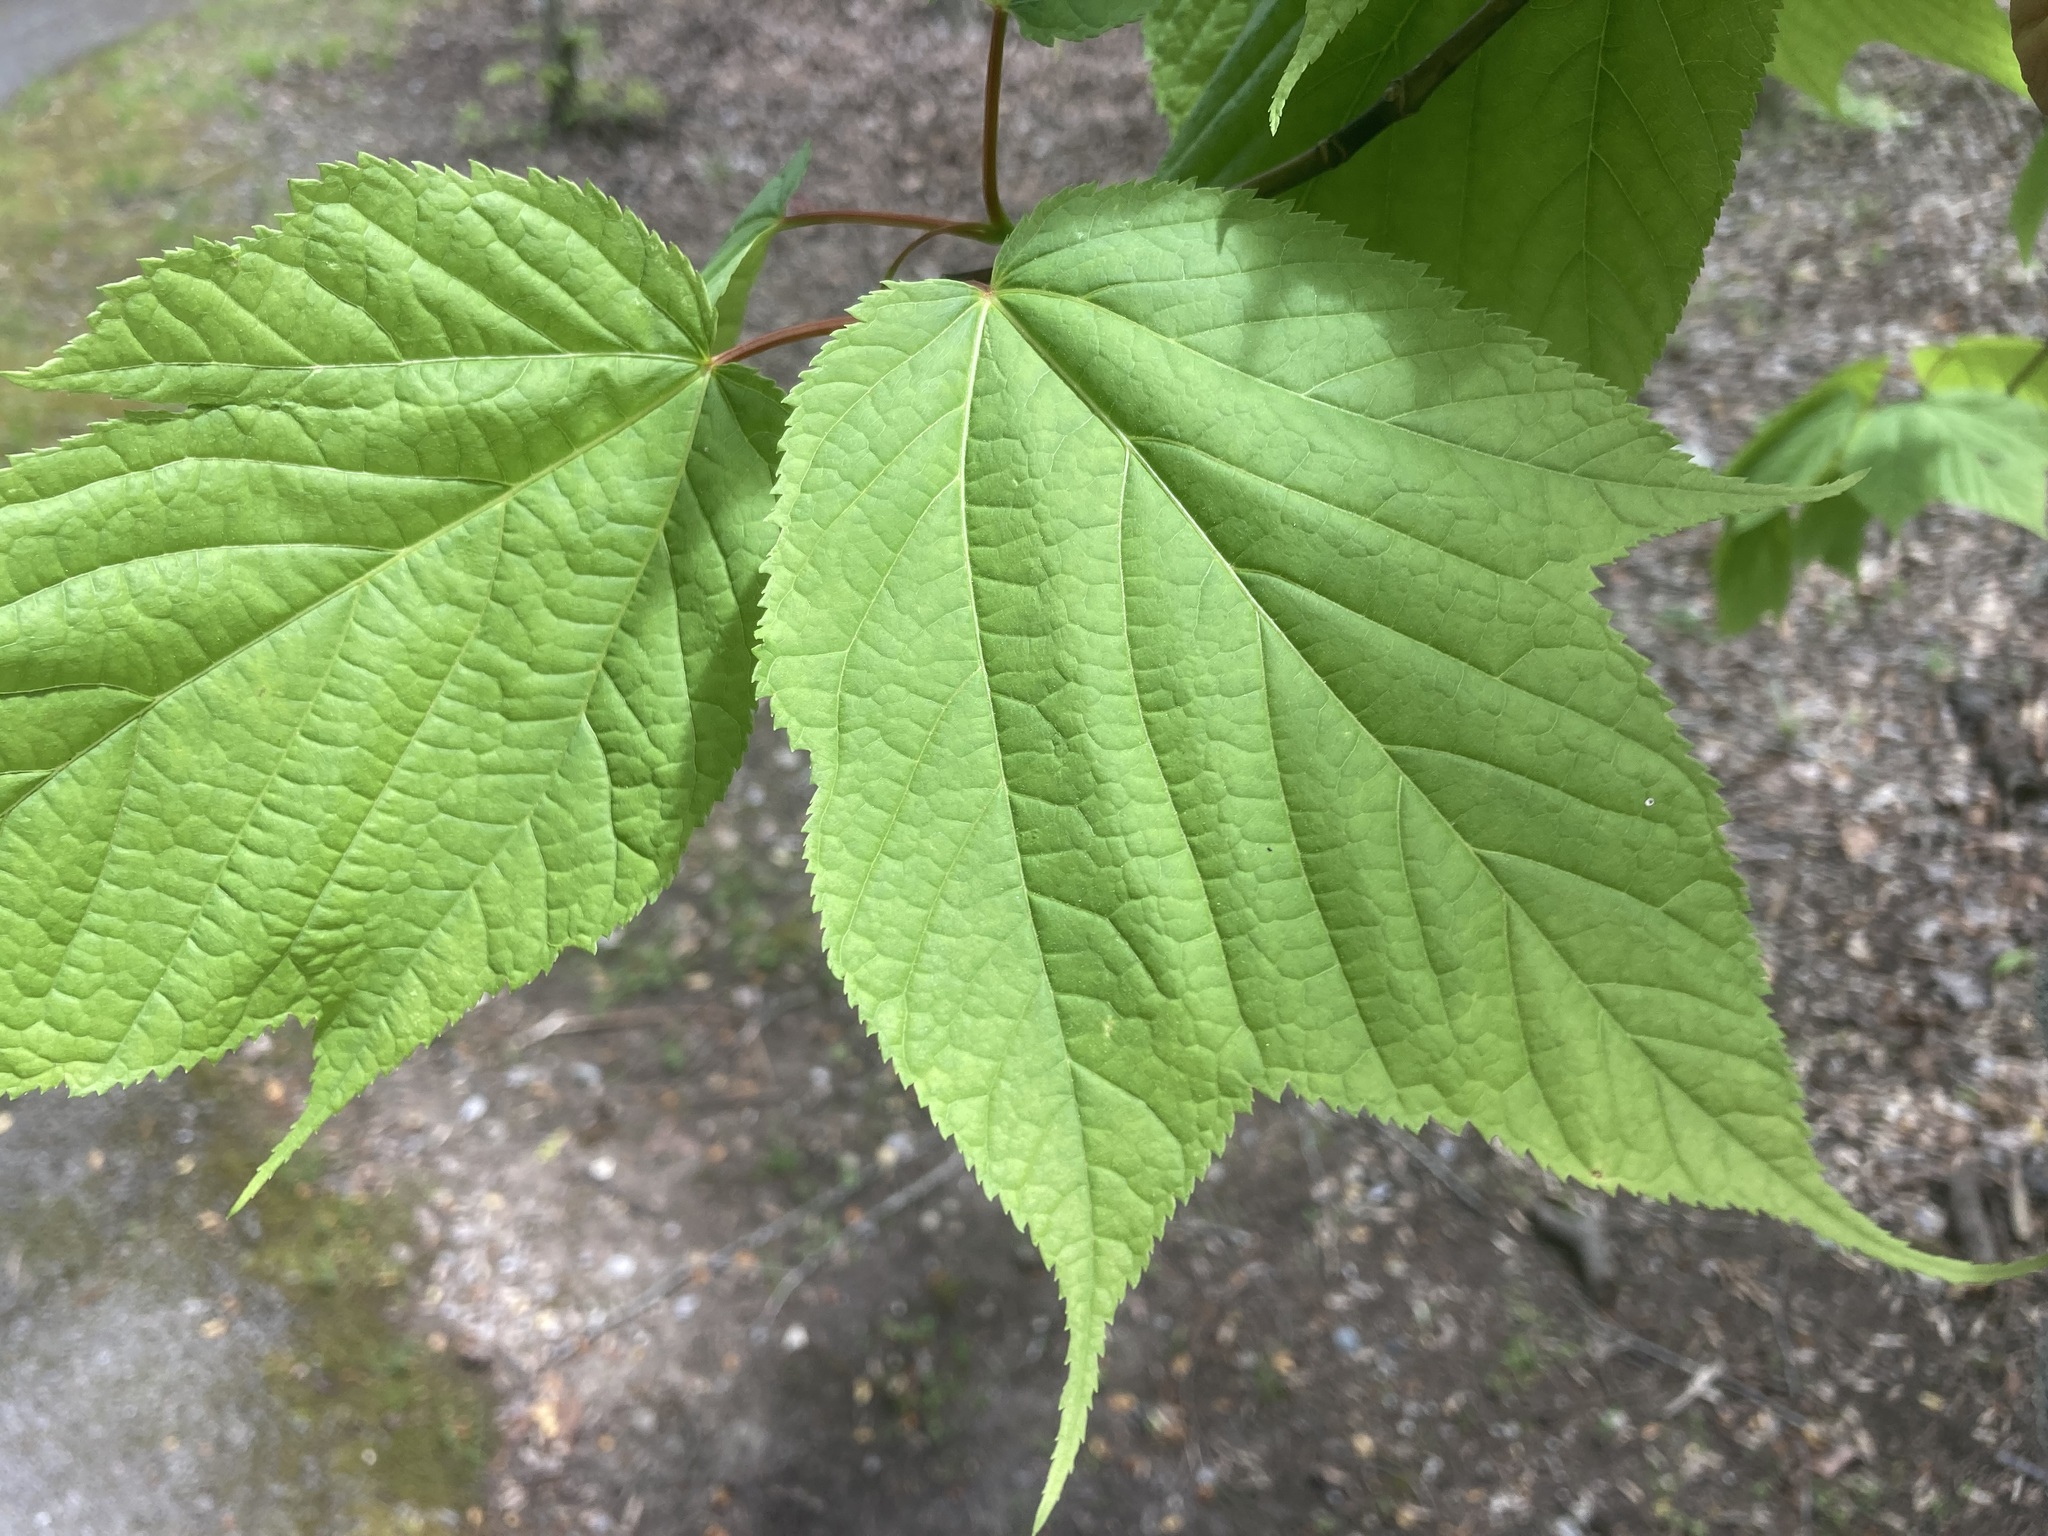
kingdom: Plantae
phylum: Tracheophyta
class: Magnoliopsida
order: Sapindales
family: Sapindaceae
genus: Acer
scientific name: Acer pensylvanicum
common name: Moosewood
